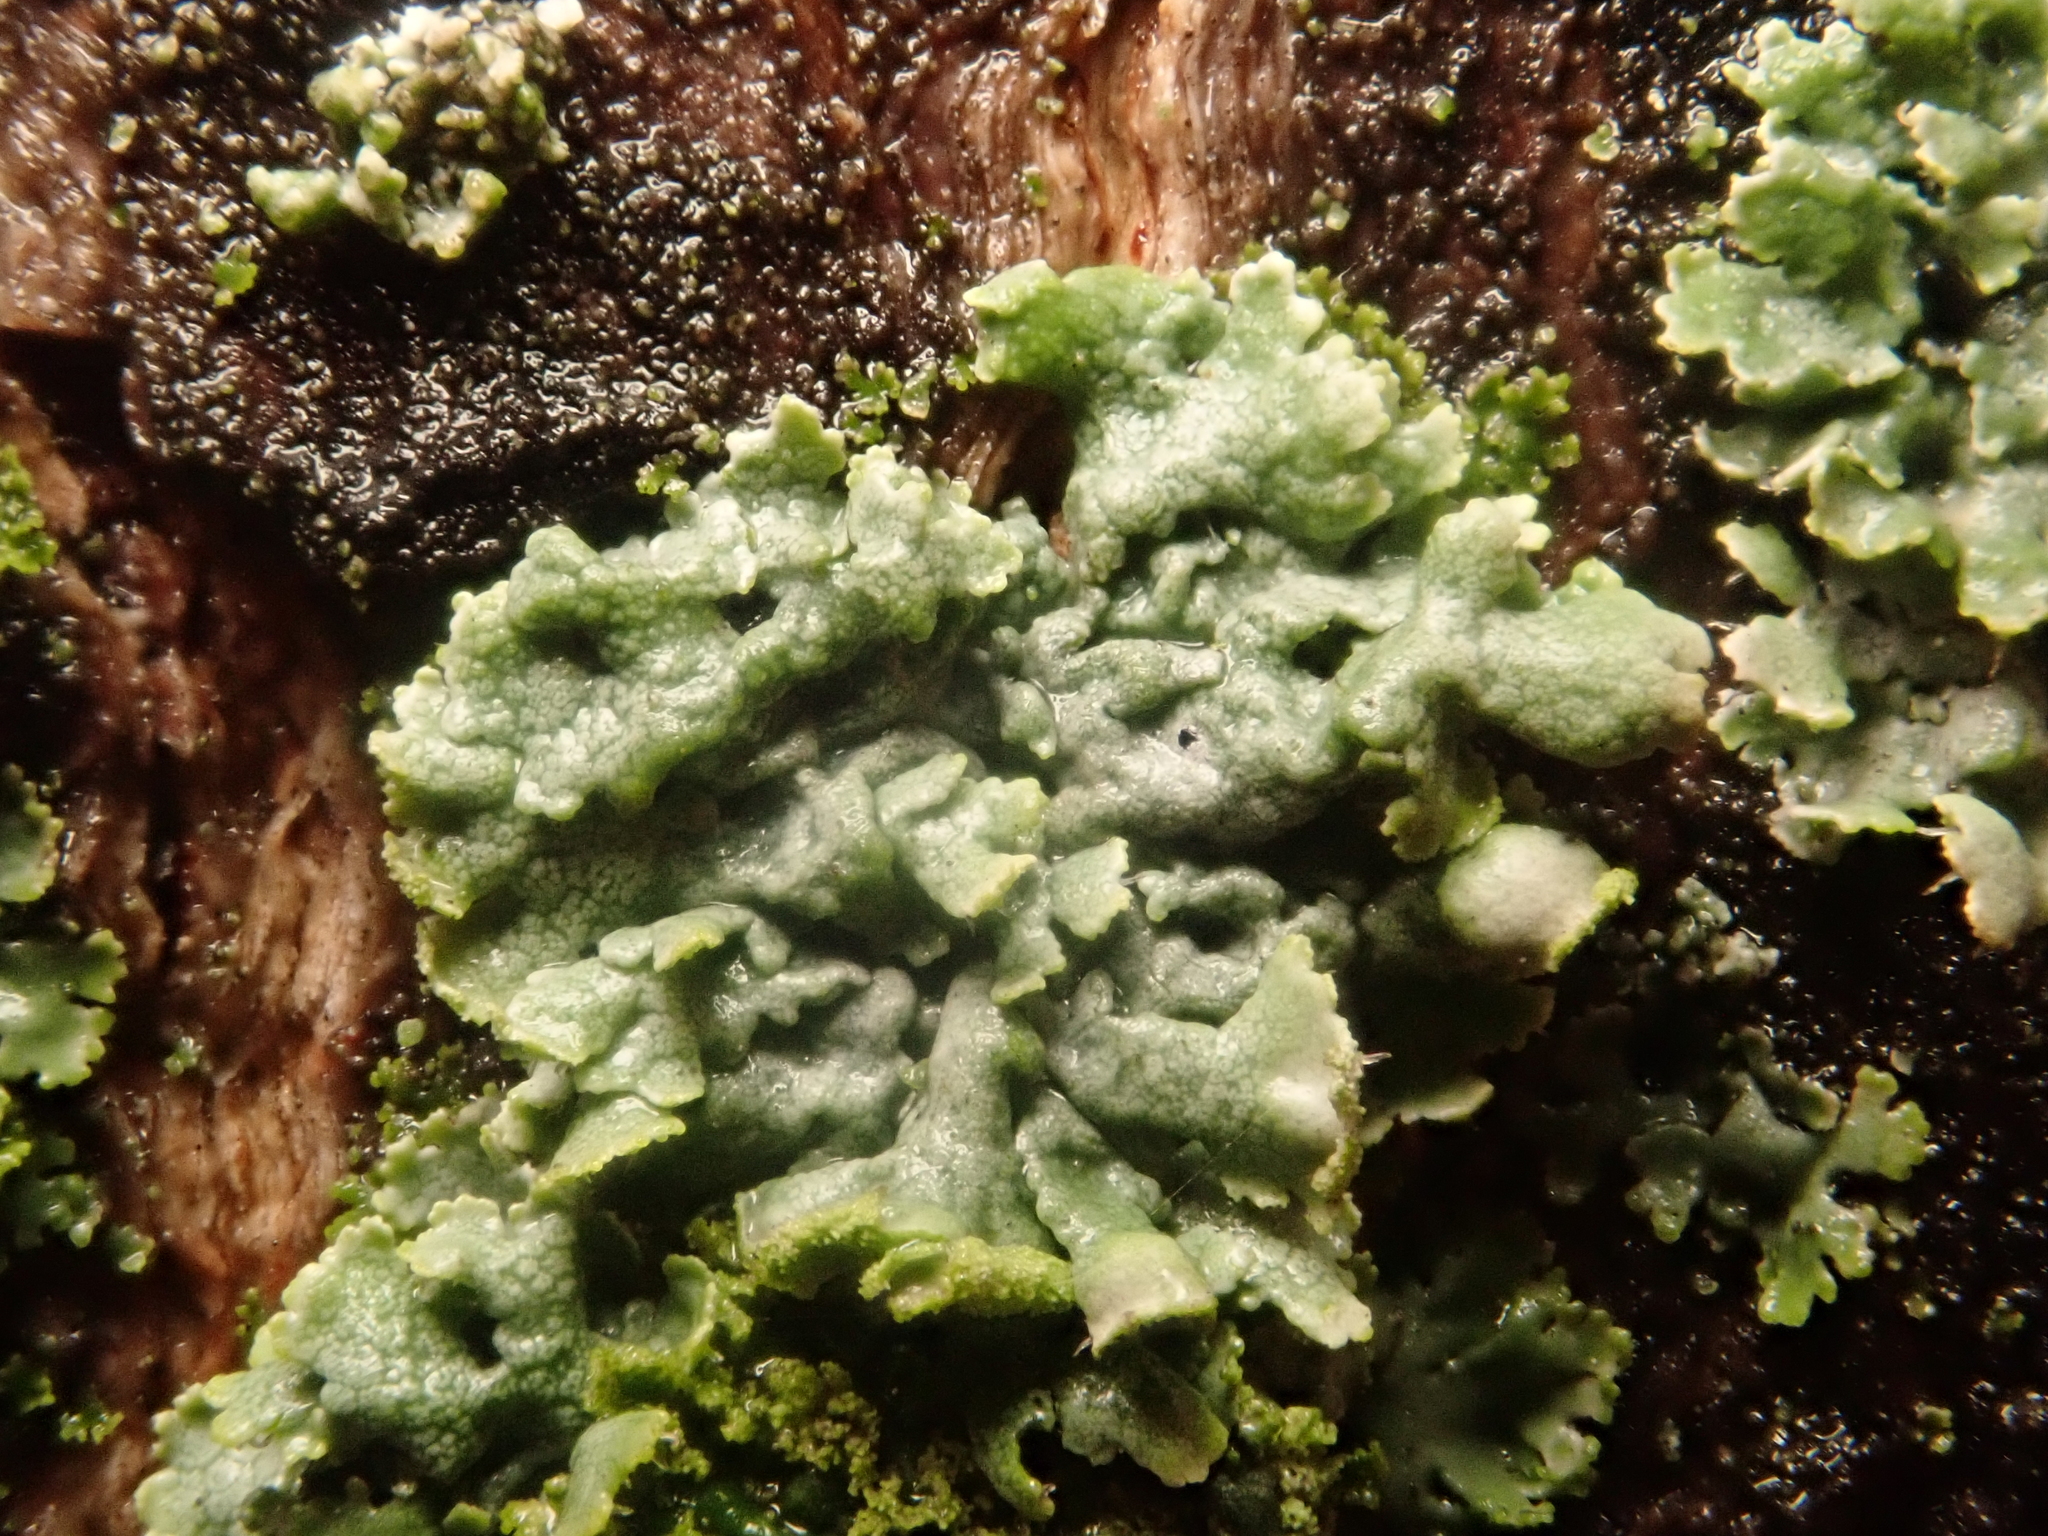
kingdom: Fungi
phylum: Ascomycota
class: Lecanoromycetes
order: Caliciales
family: Physciaceae
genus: Physcia
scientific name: Physcia adscendens
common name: Hooded rosette lichen
